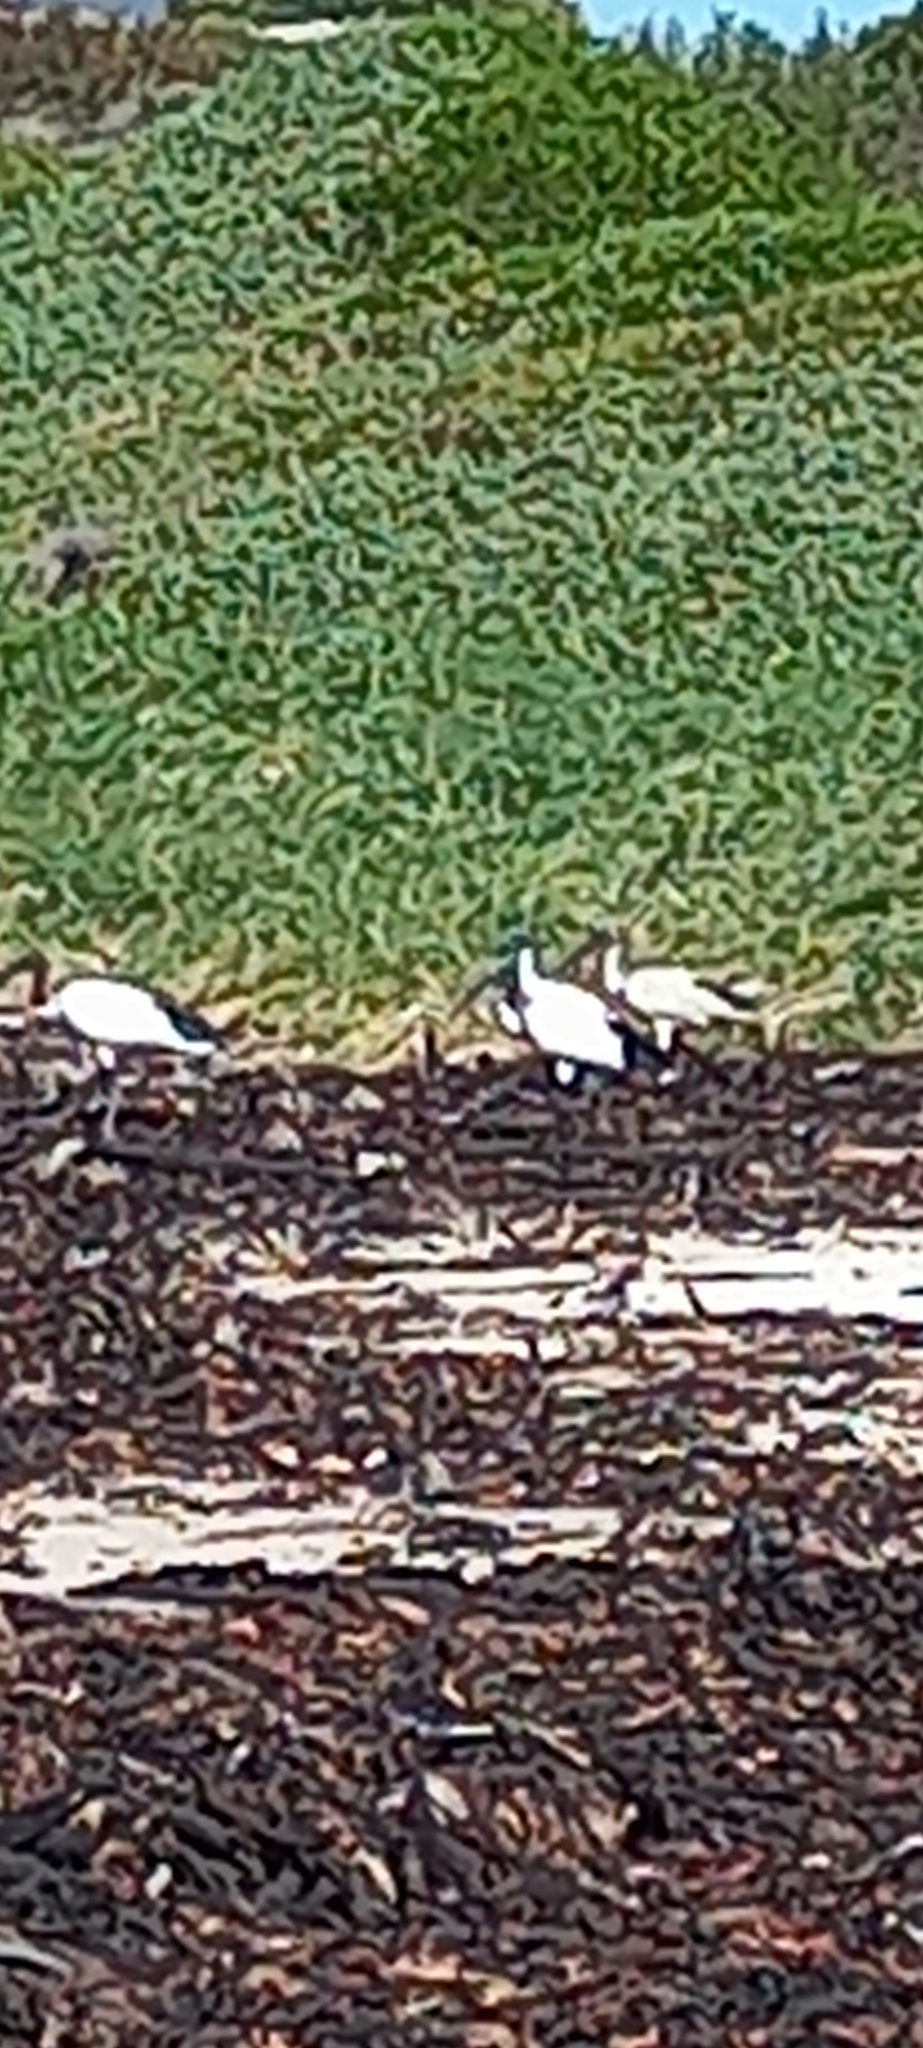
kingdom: Animalia
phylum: Chordata
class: Aves
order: Pelecaniformes
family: Threskiornithidae
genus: Threskiornis
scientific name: Threskiornis aethiopicus
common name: Sacred ibis
